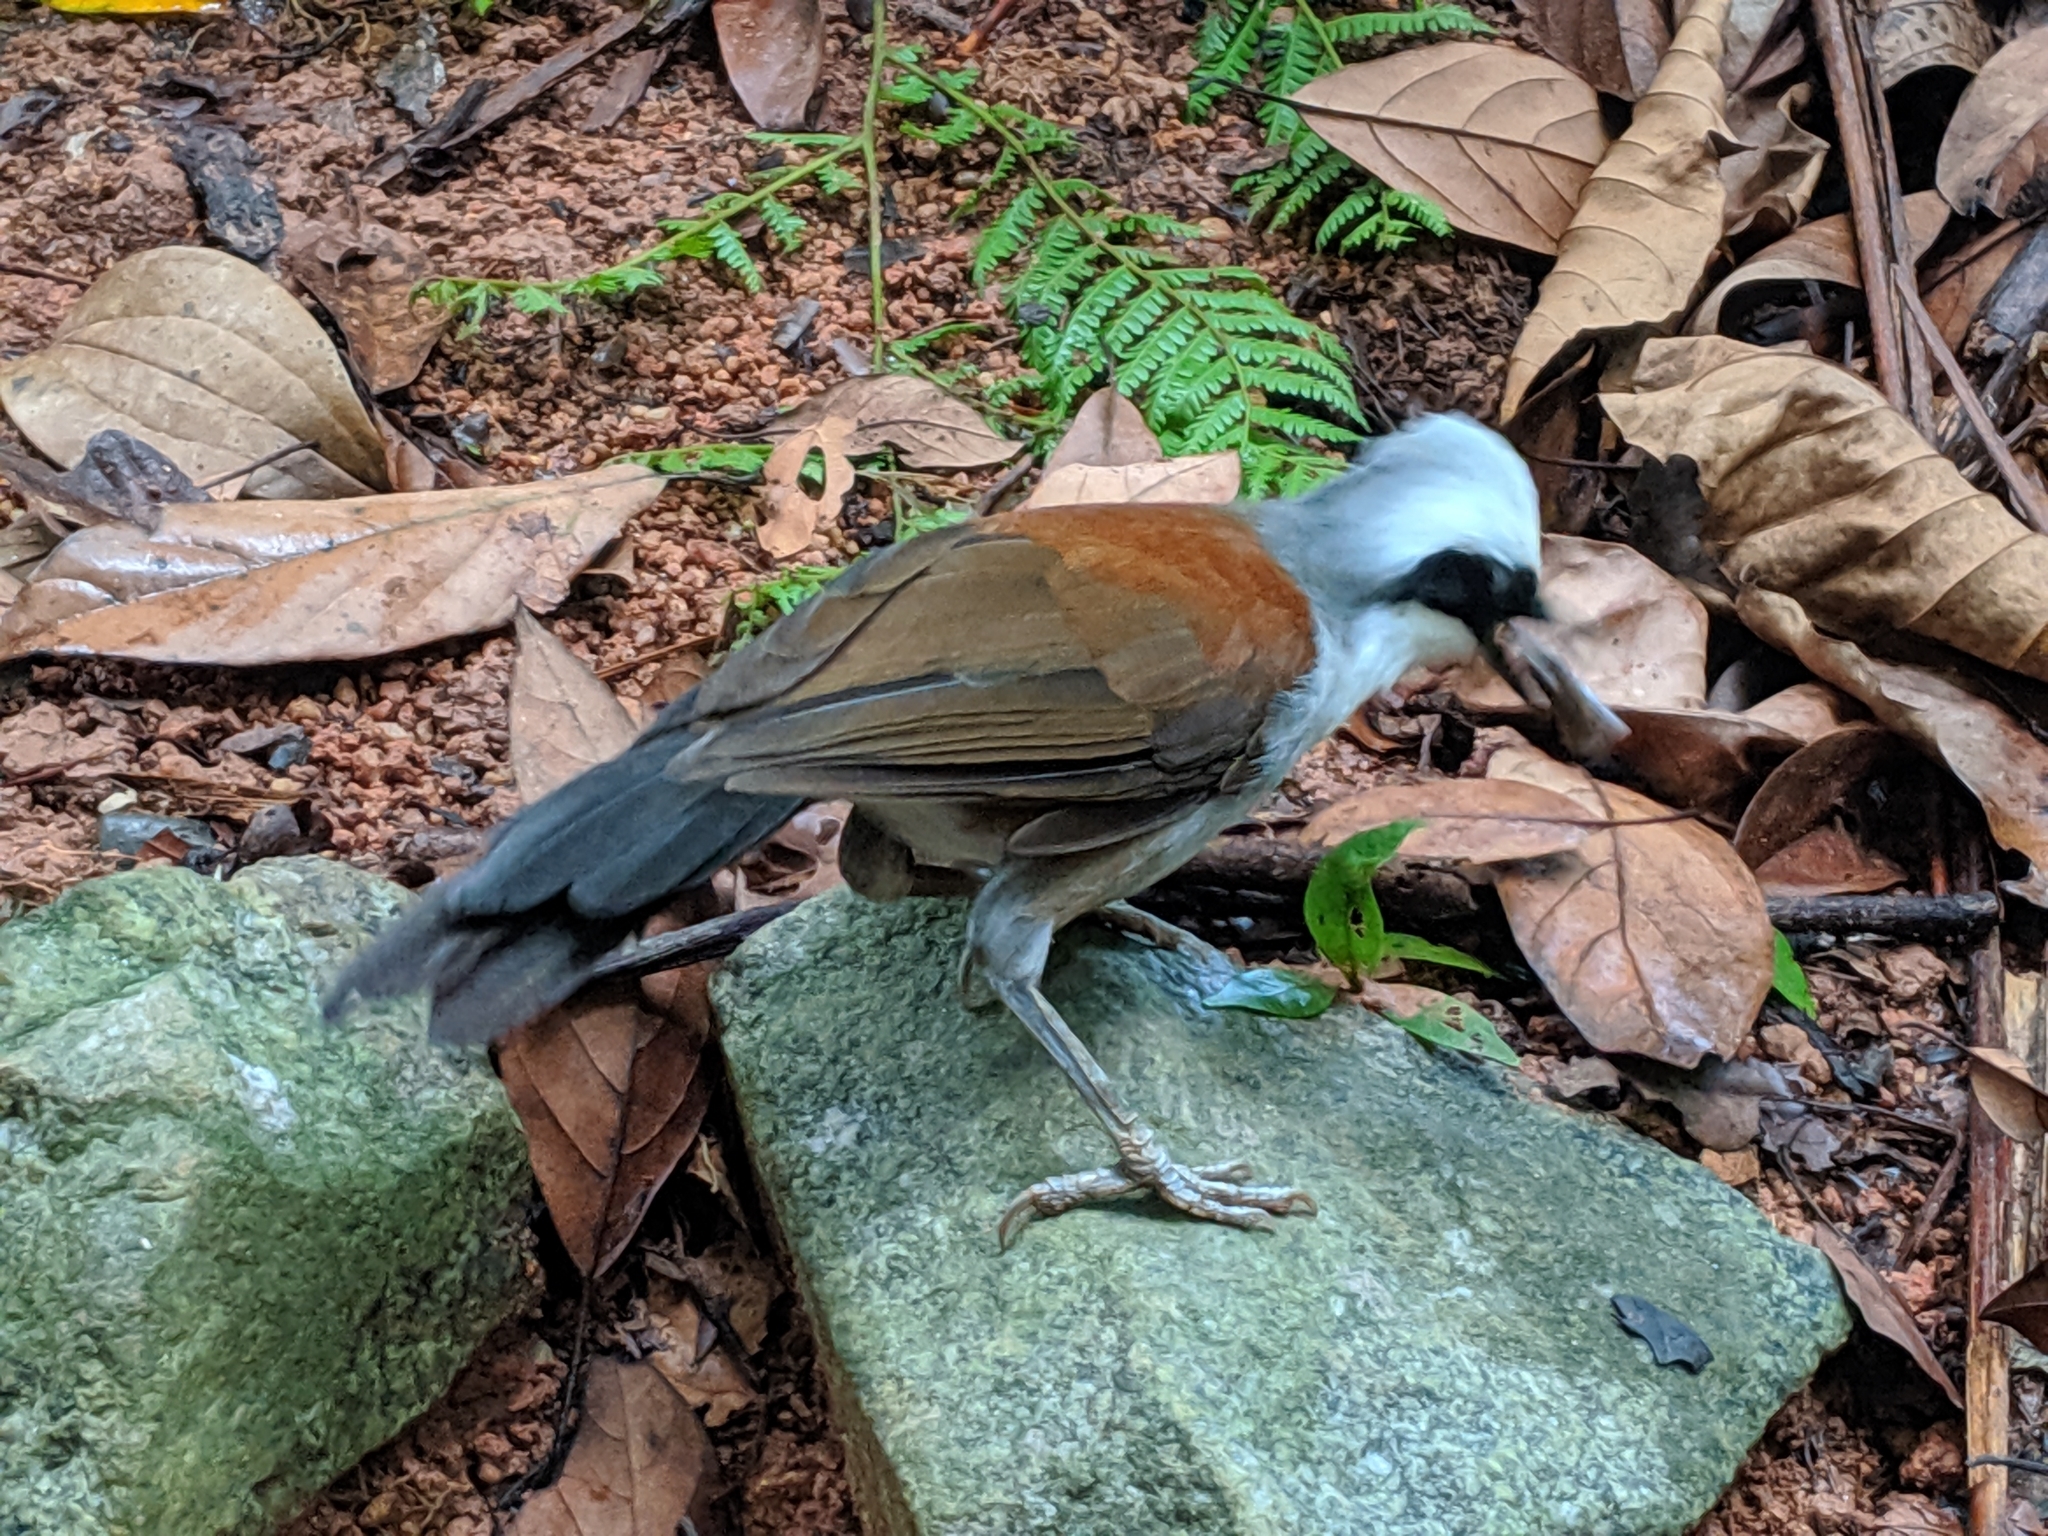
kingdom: Animalia
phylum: Chordata
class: Aves
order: Passeriformes
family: Leiothrichidae
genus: Garrulax
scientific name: Garrulax leucolophus
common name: White-crested laughingthrush
